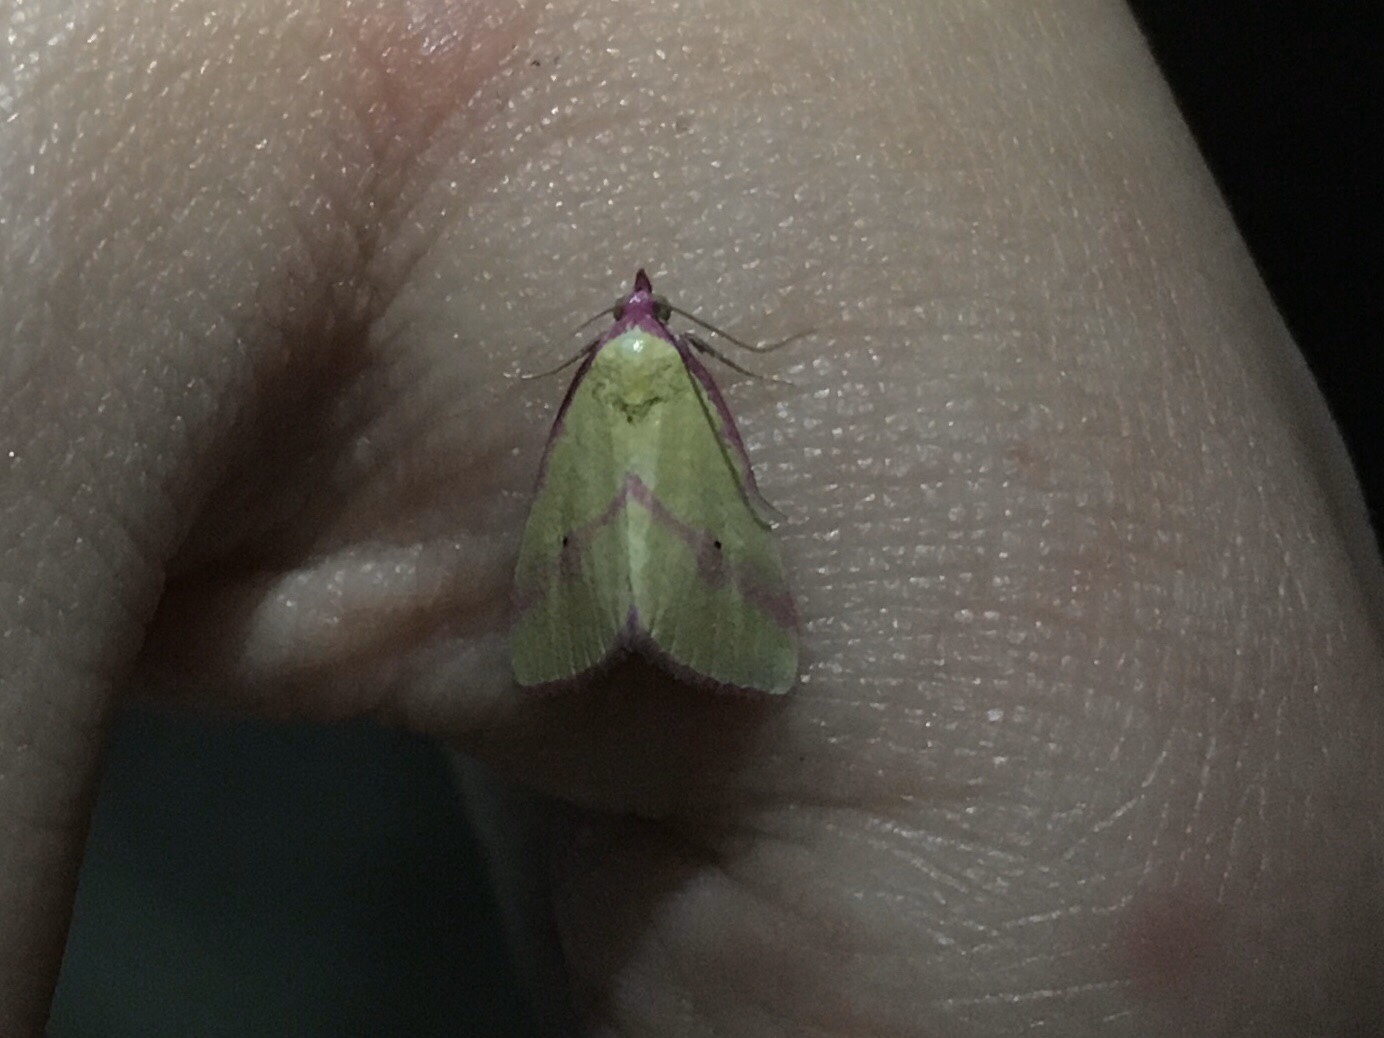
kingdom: Animalia
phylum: Arthropoda
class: Insecta
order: Lepidoptera
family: Erebidae
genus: Phytometra
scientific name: Phytometra ernestinana
